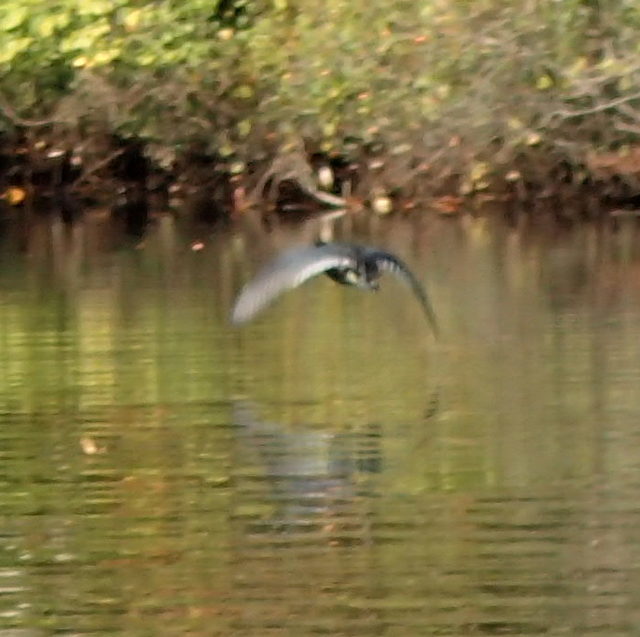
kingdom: Animalia
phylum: Chordata
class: Aves
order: Gruiformes
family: Rallidae
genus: Fulica
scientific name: Fulica americana
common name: American coot
